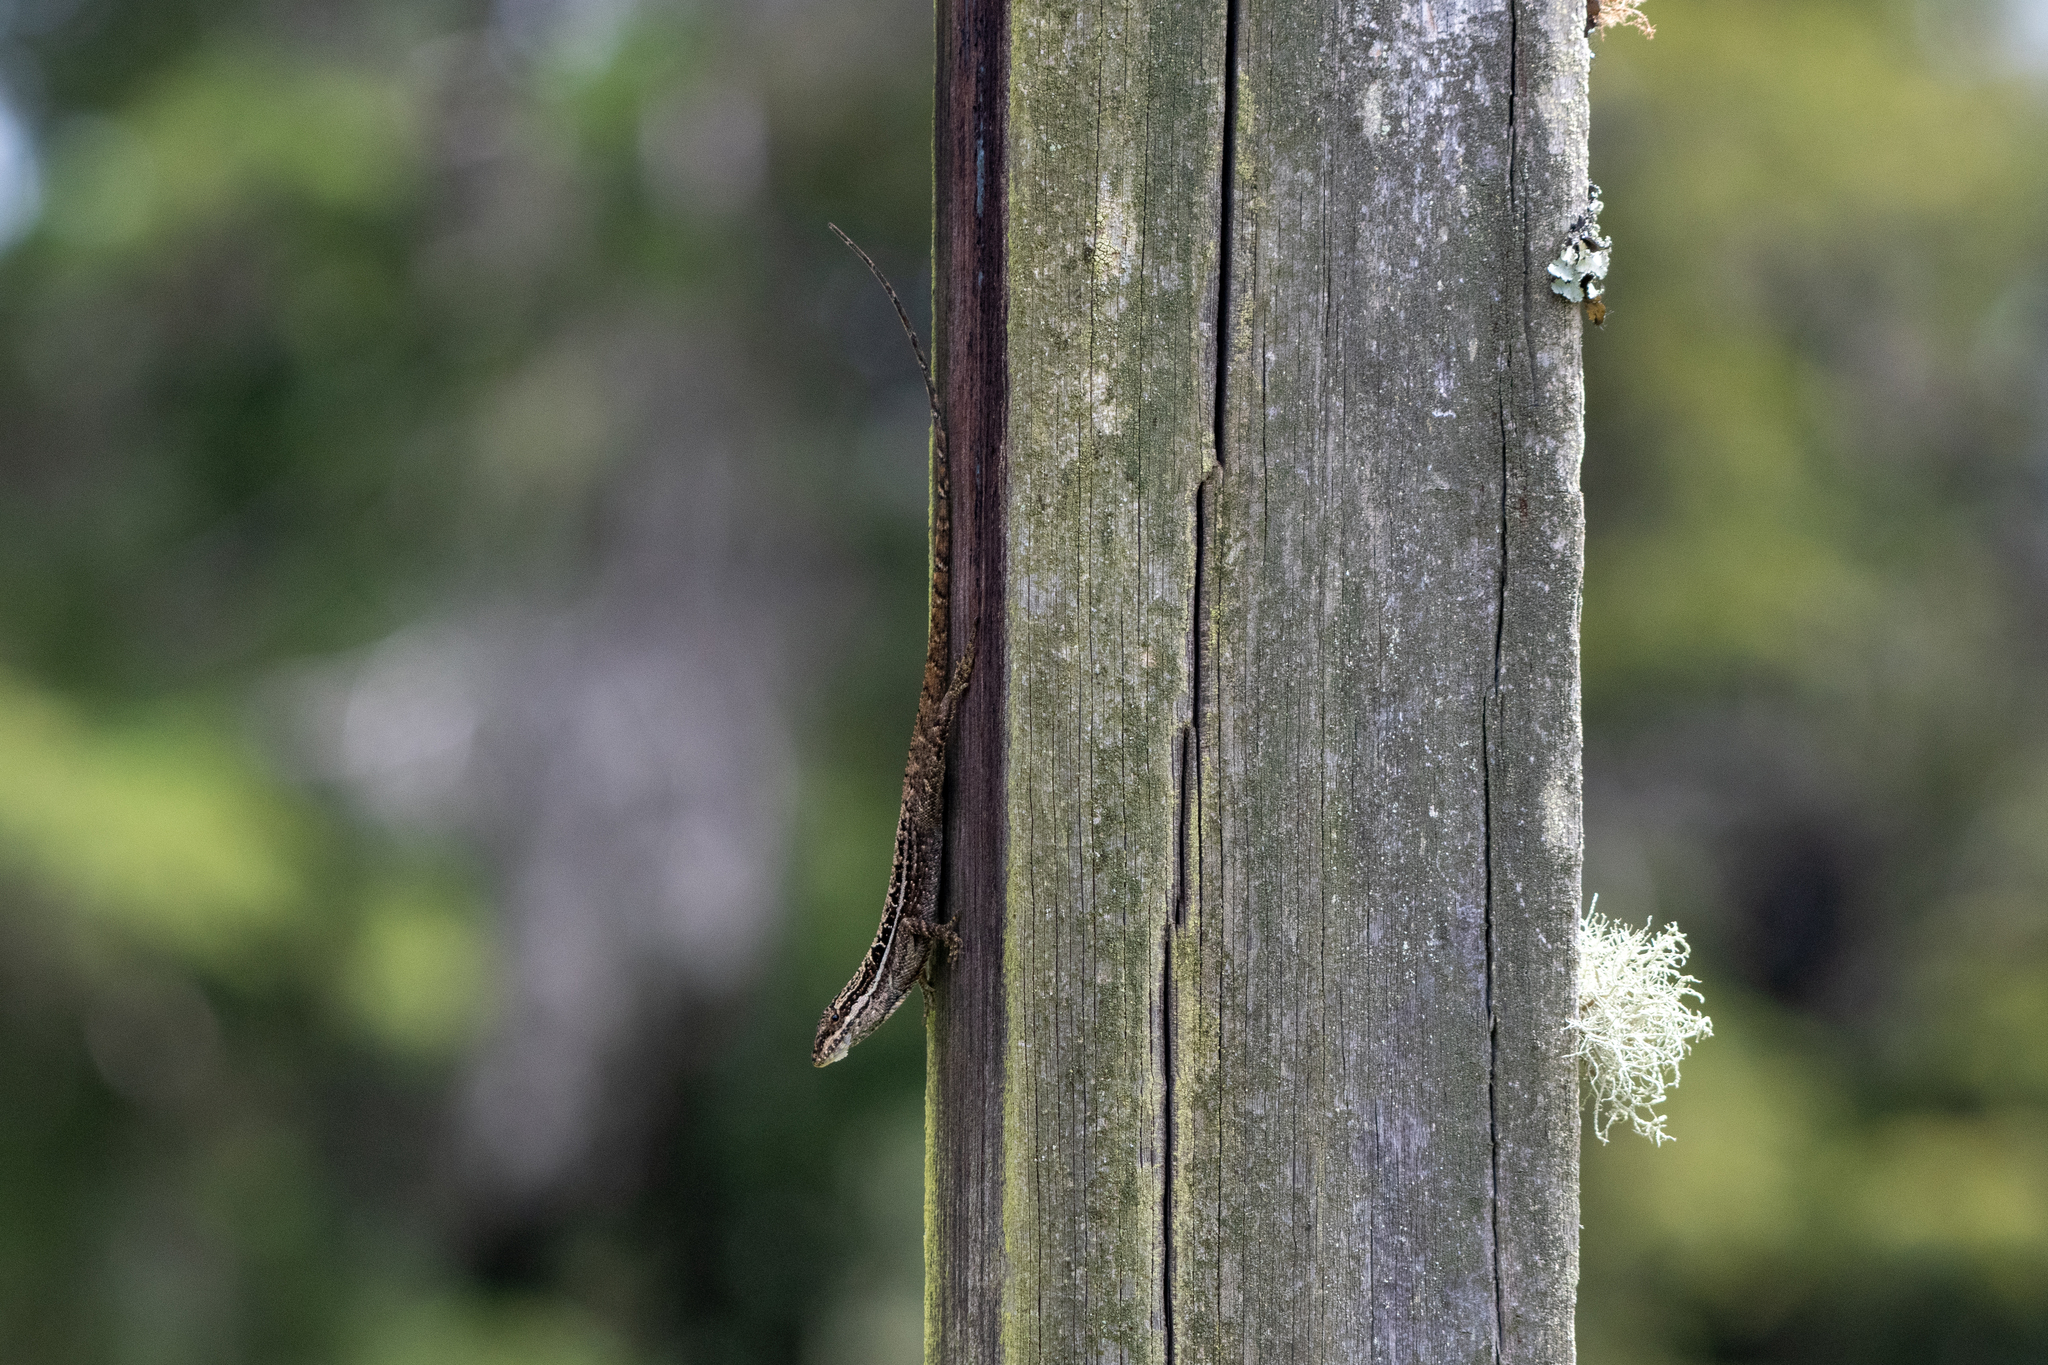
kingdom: Animalia
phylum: Chordata
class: Squamata
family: Dactyloidae
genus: Anolis
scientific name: Anolis caceresae
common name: Berta’s anole
